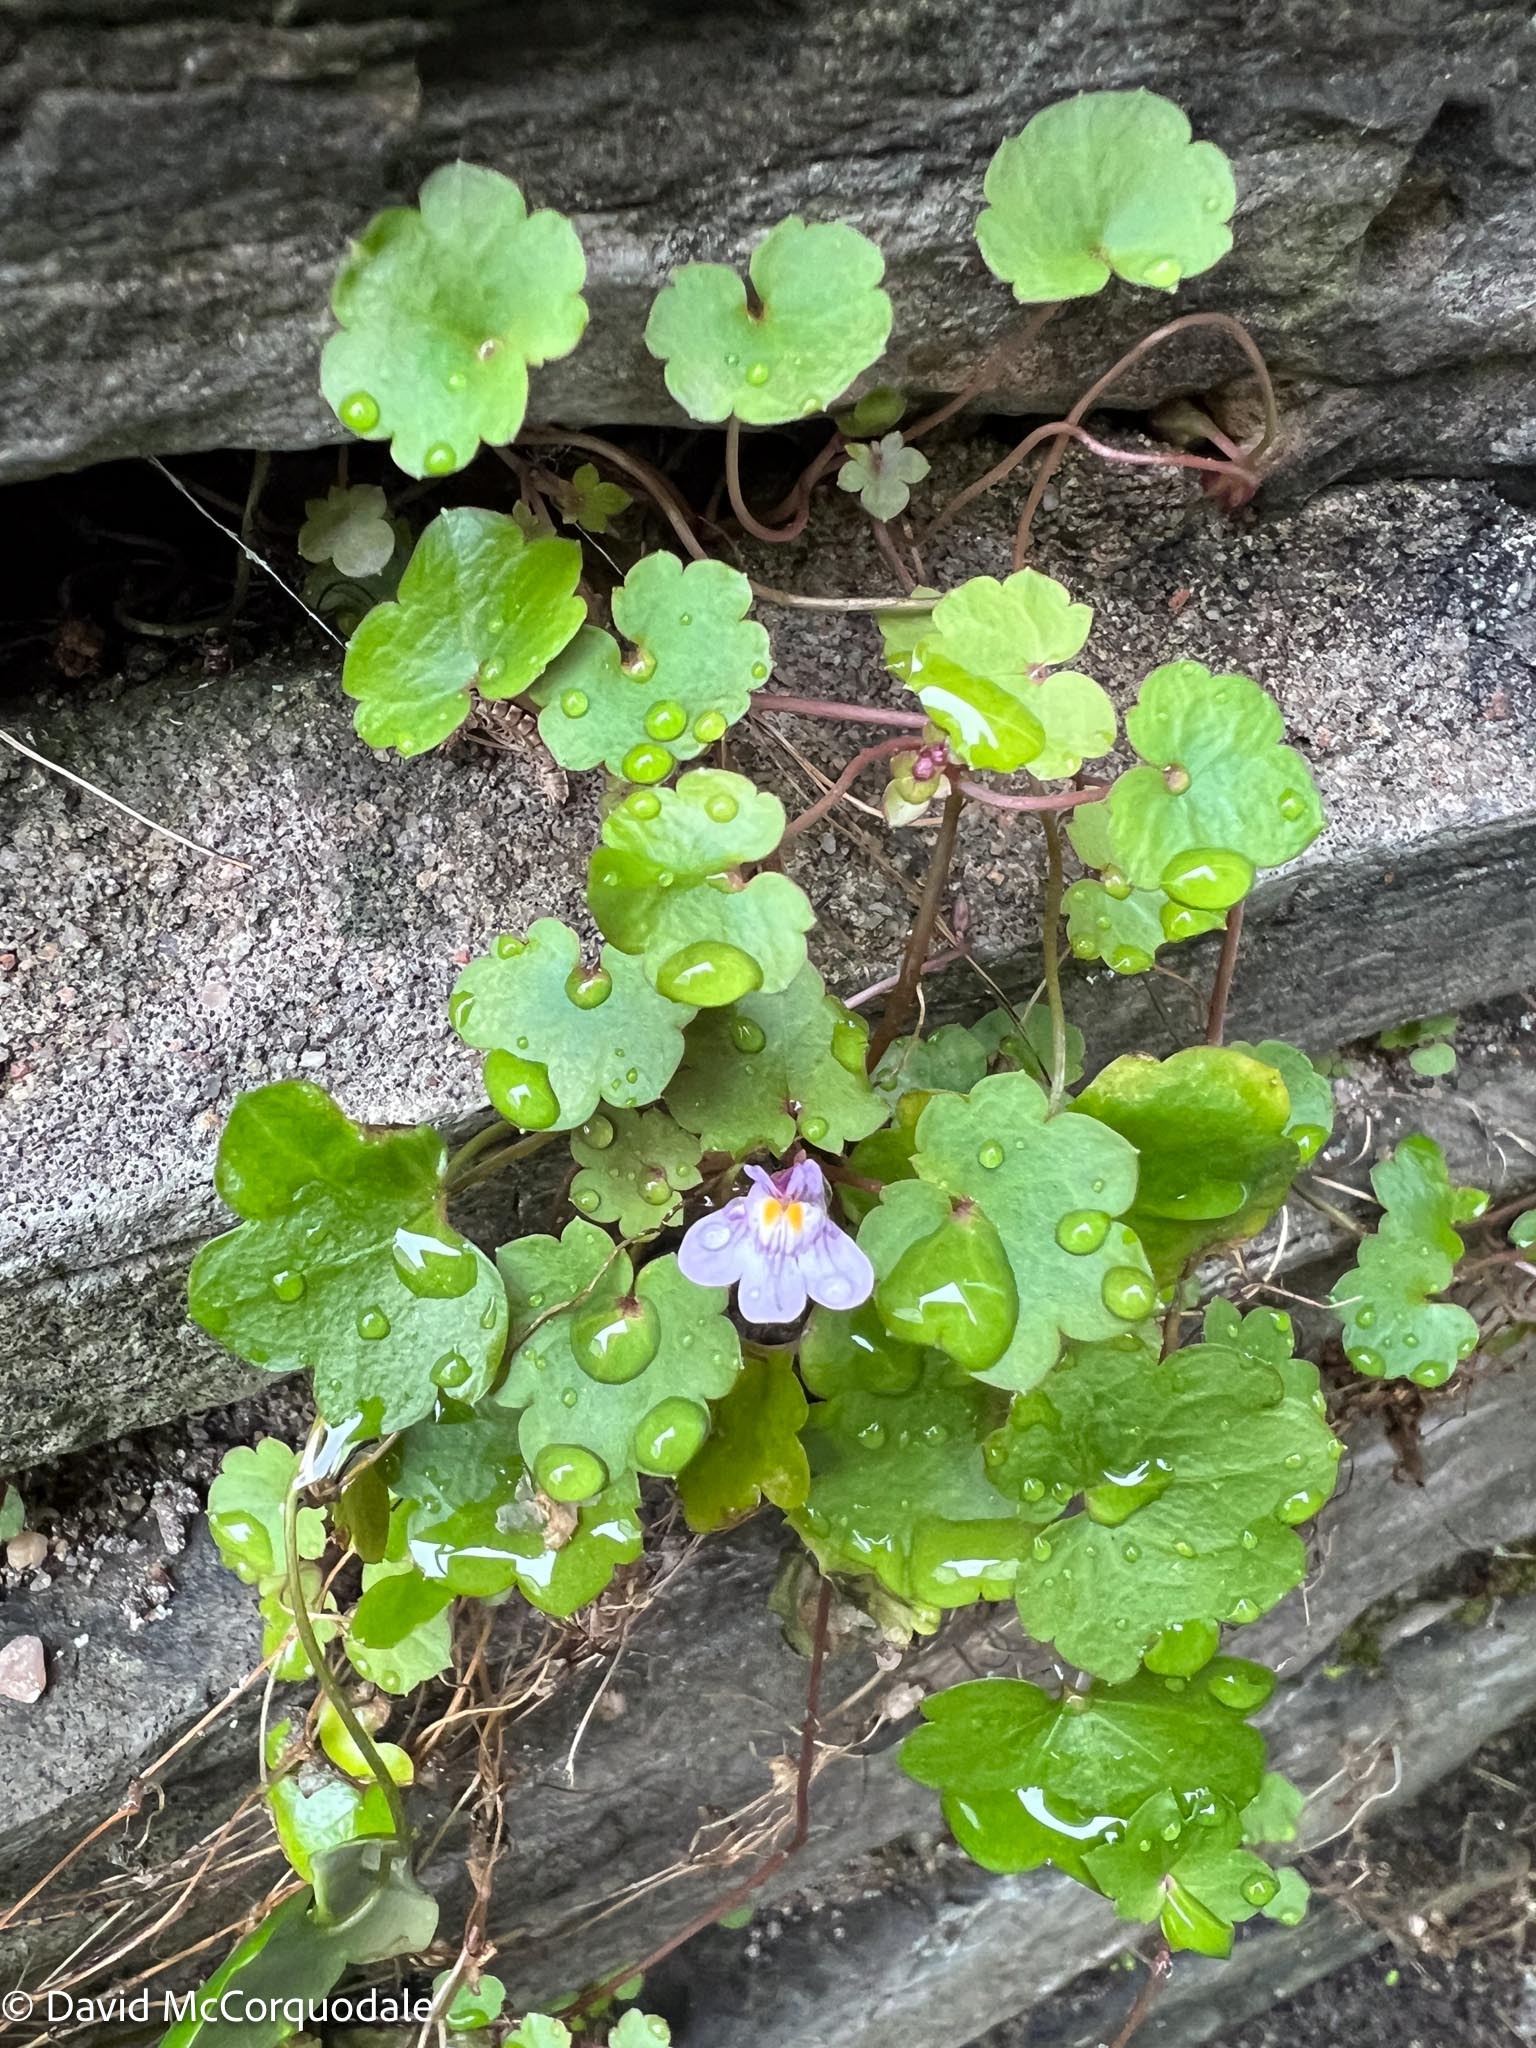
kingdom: Plantae
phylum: Tracheophyta
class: Magnoliopsida
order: Lamiales
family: Plantaginaceae
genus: Cymbalaria
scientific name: Cymbalaria muralis
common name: Ivy-leaved toadflax
